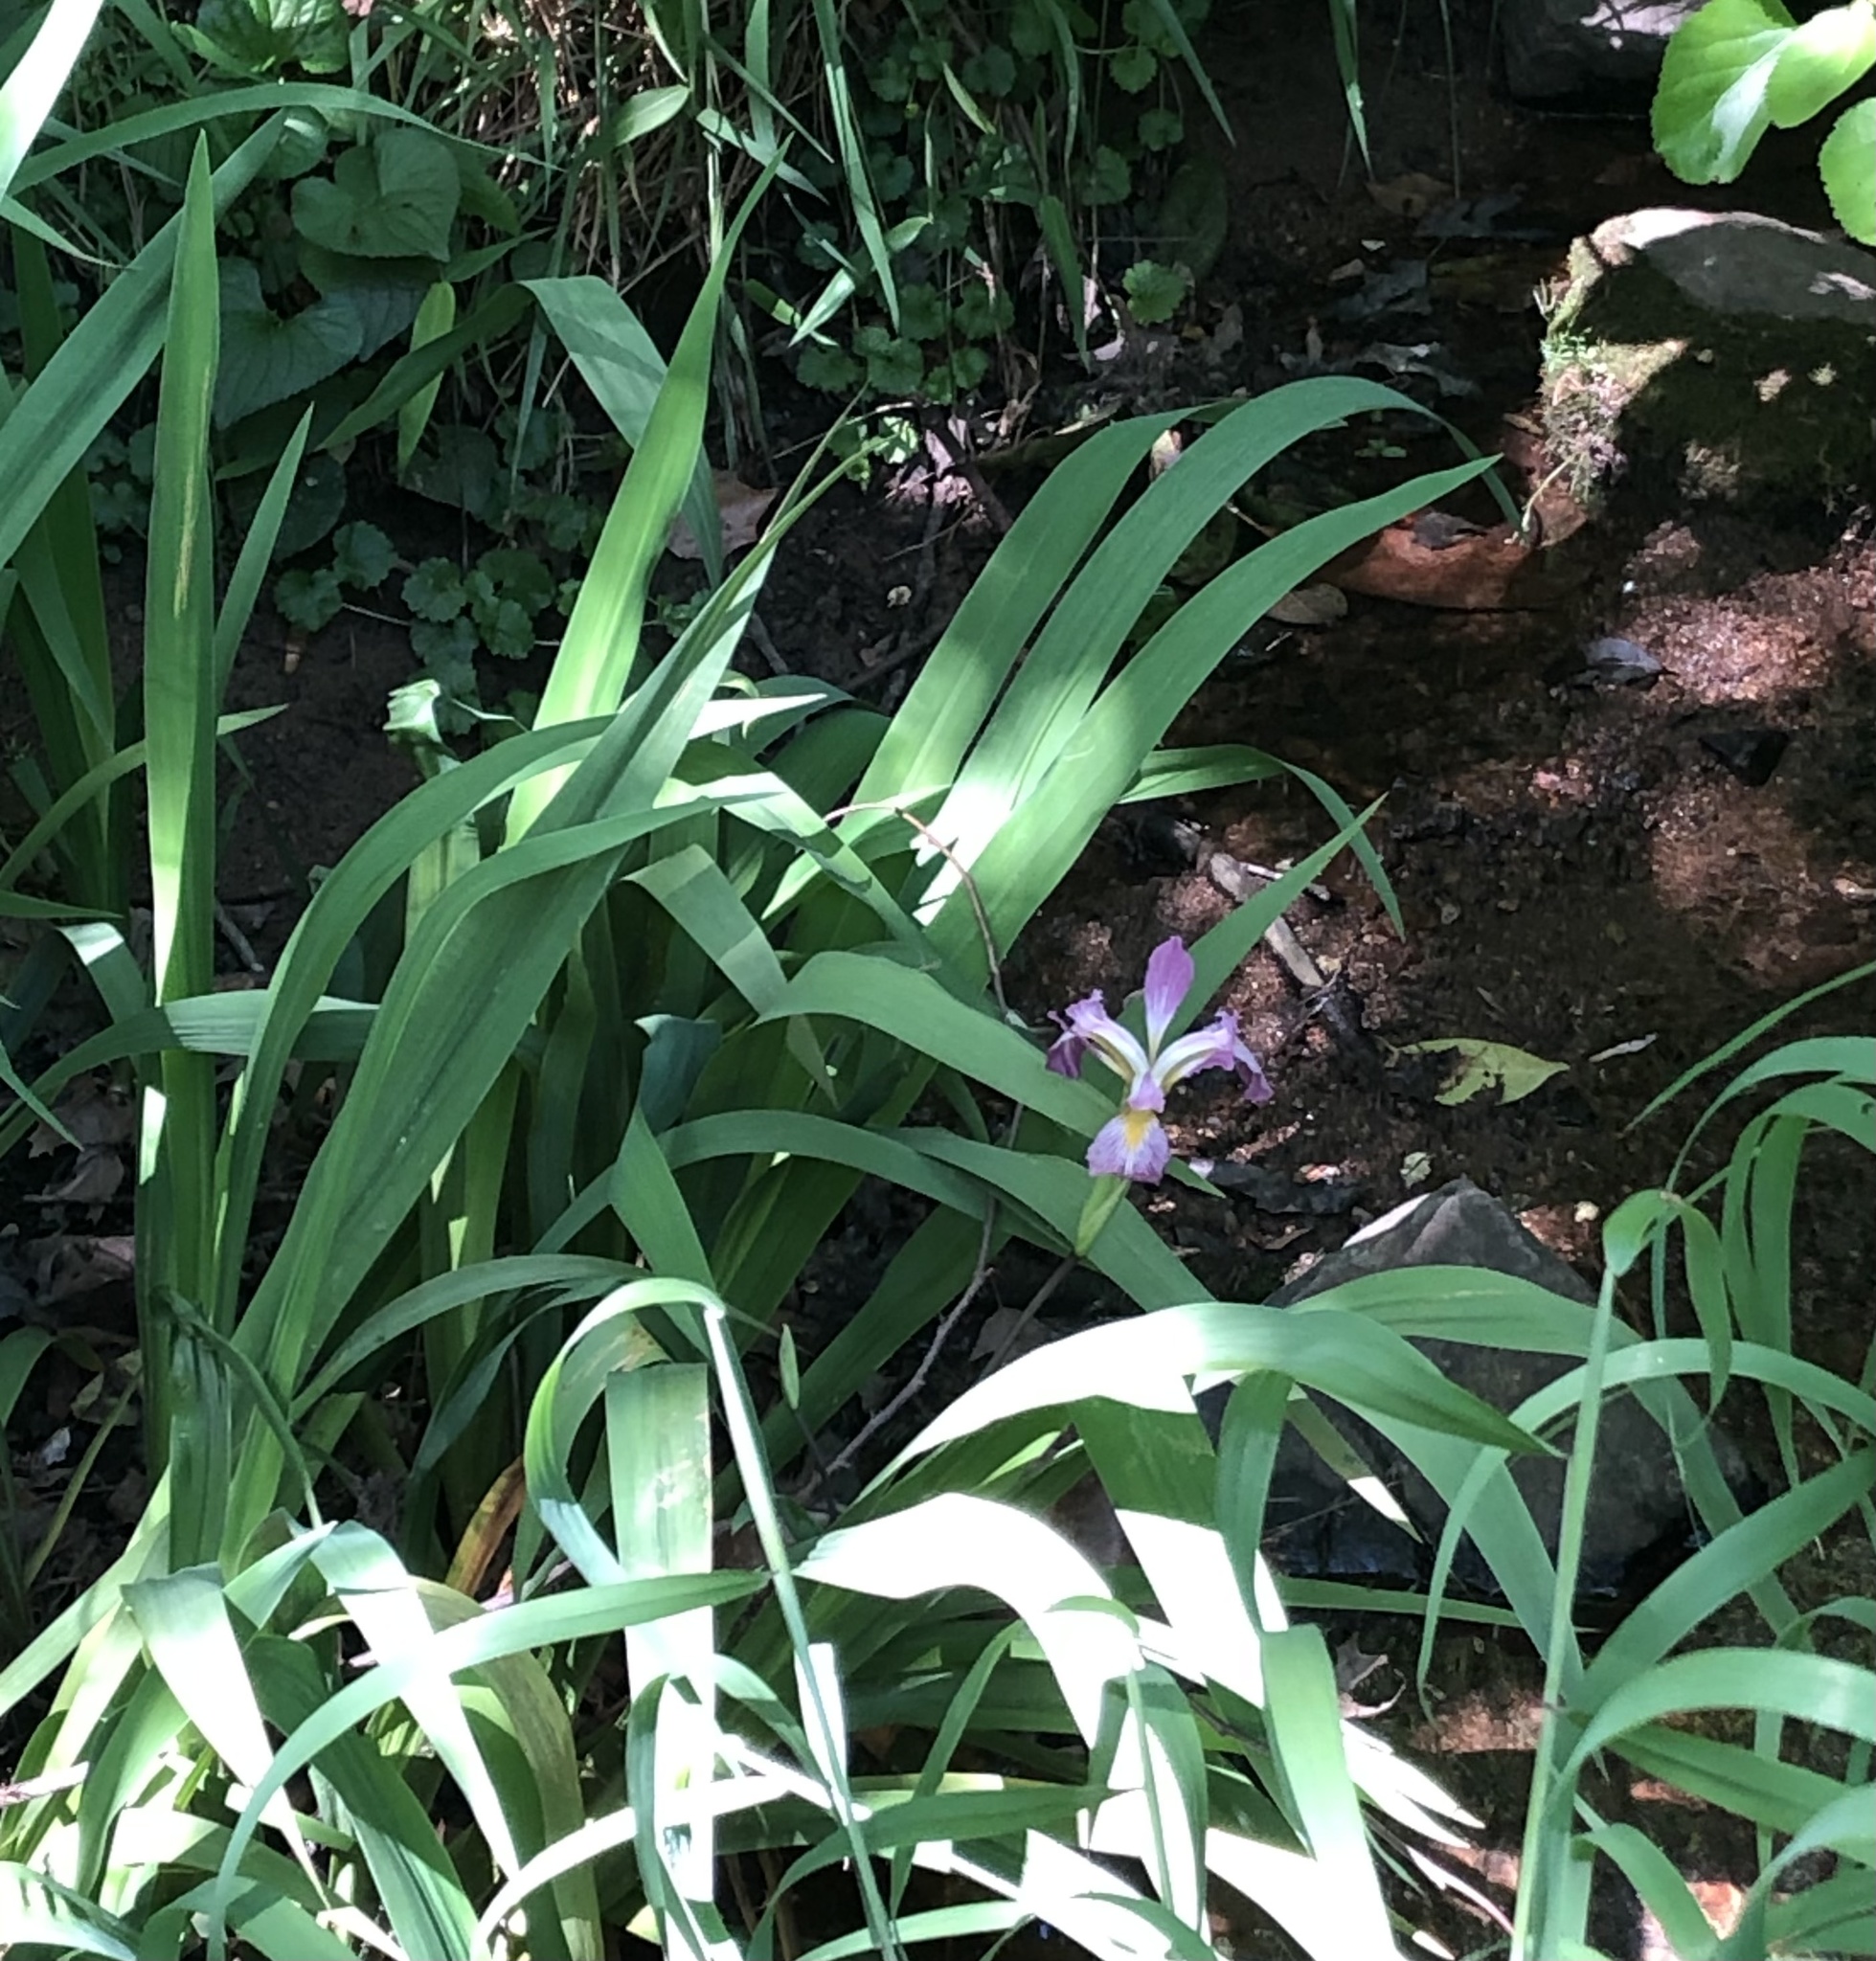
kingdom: Plantae
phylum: Tracheophyta
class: Liliopsida
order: Asparagales
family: Iridaceae
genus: Iris
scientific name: Iris virginica
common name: Southern blue flag
